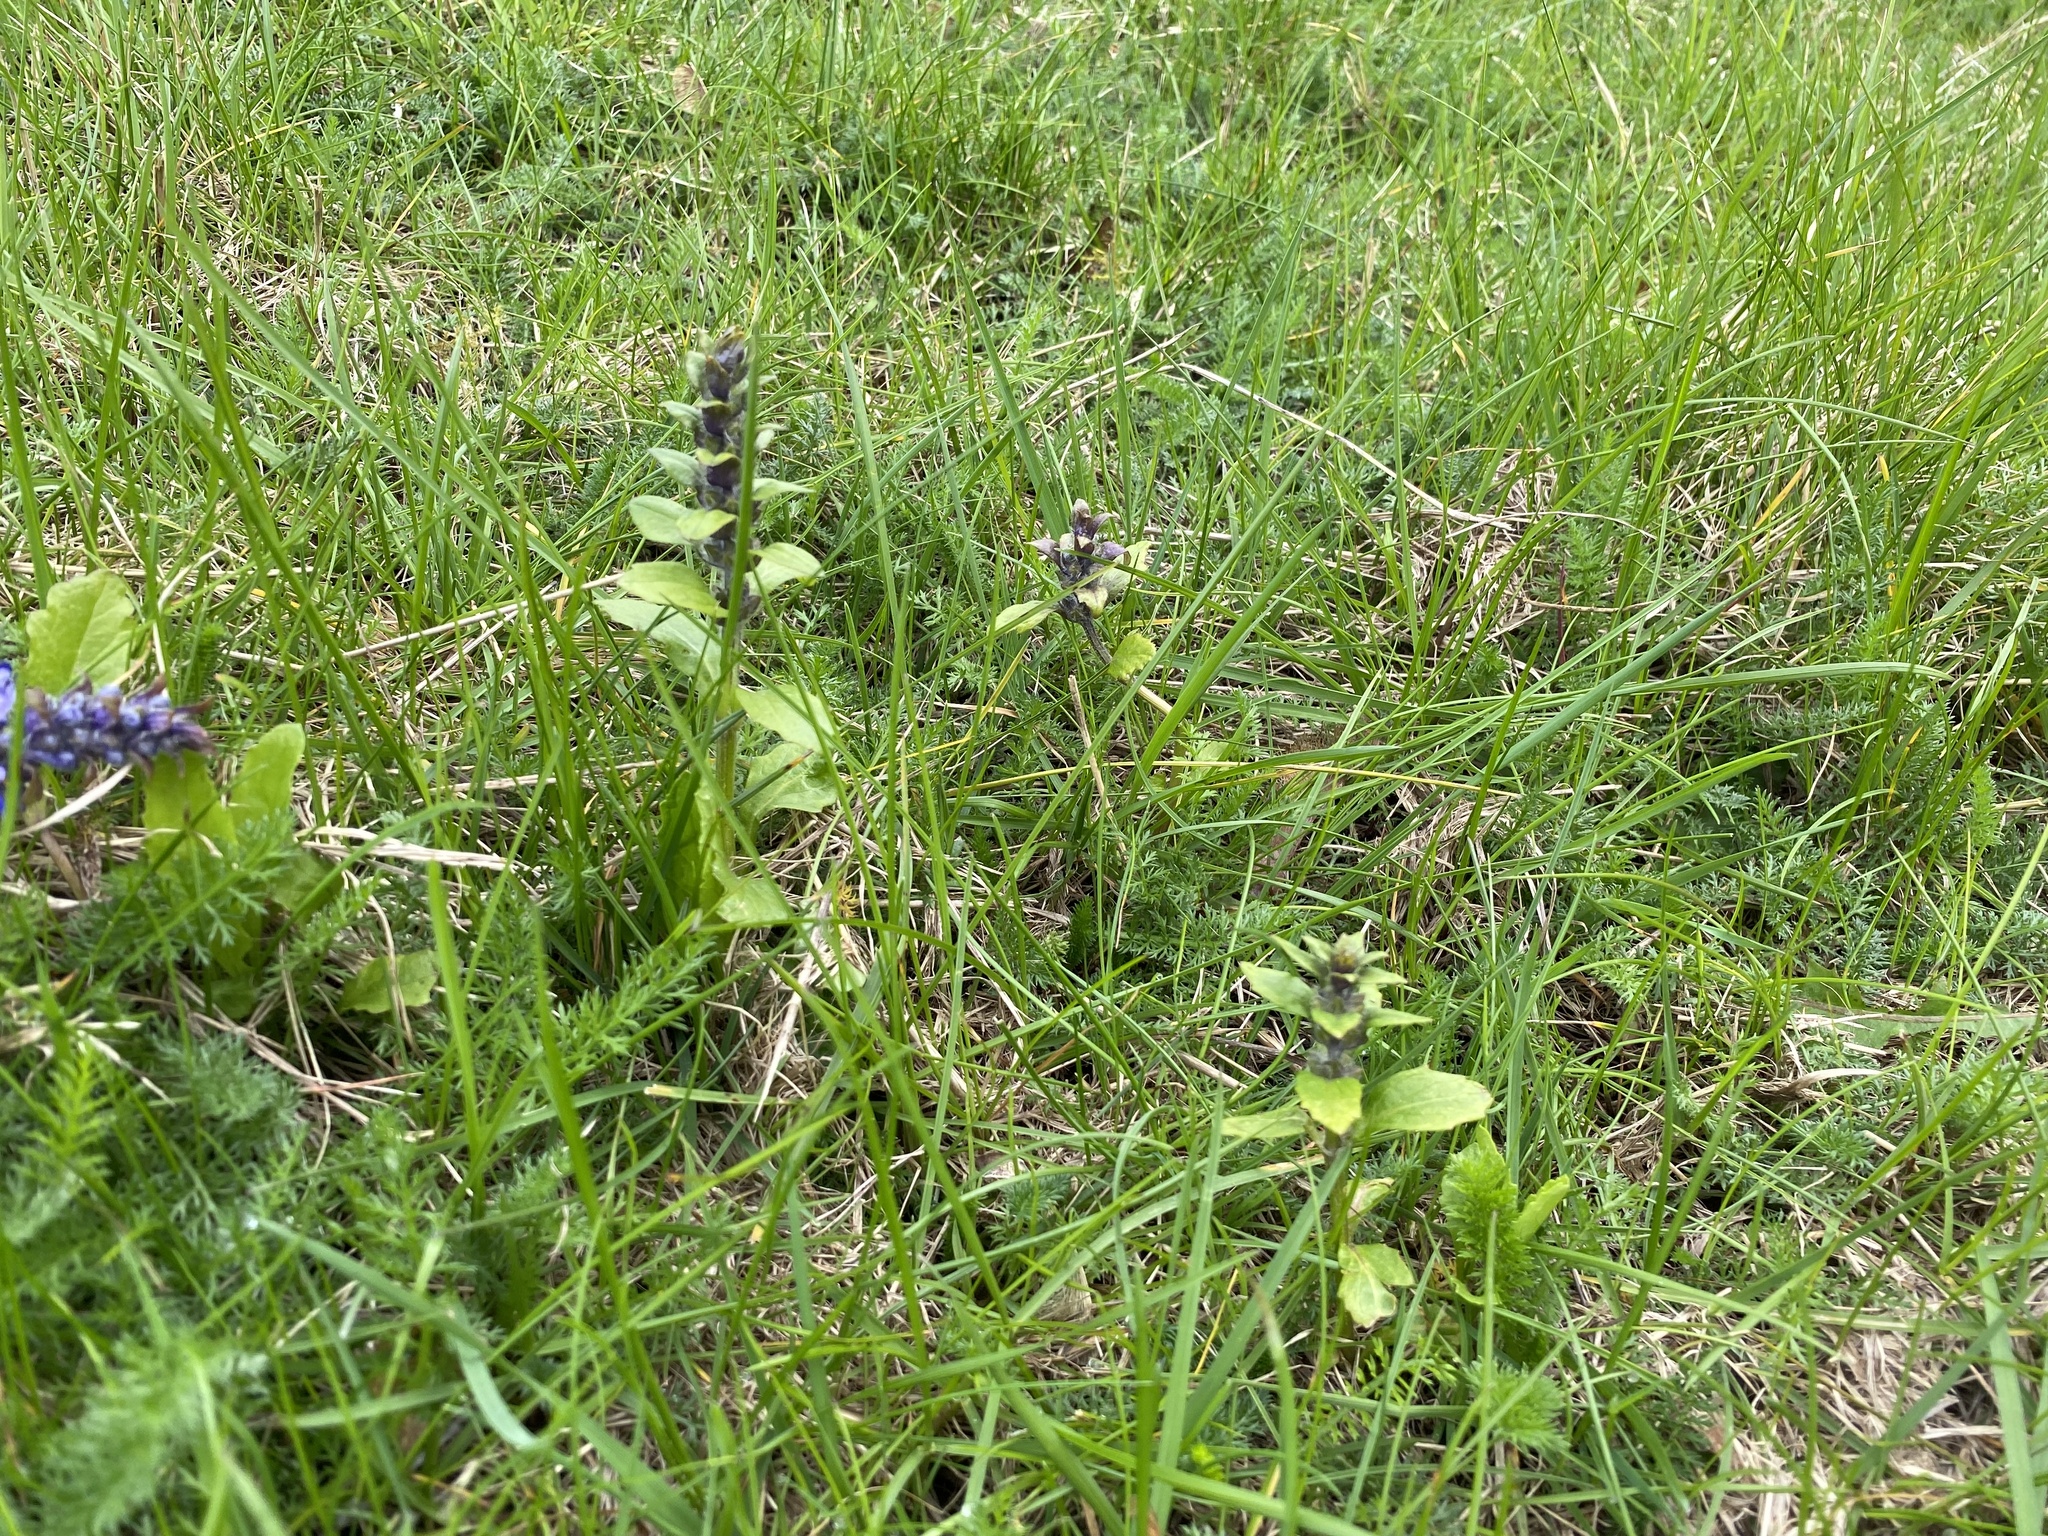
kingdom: Plantae
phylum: Tracheophyta
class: Magnoliopsida
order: Lamiales
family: Lamiaceae
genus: Ajuga
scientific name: Ajuga reptans
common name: Bugle
